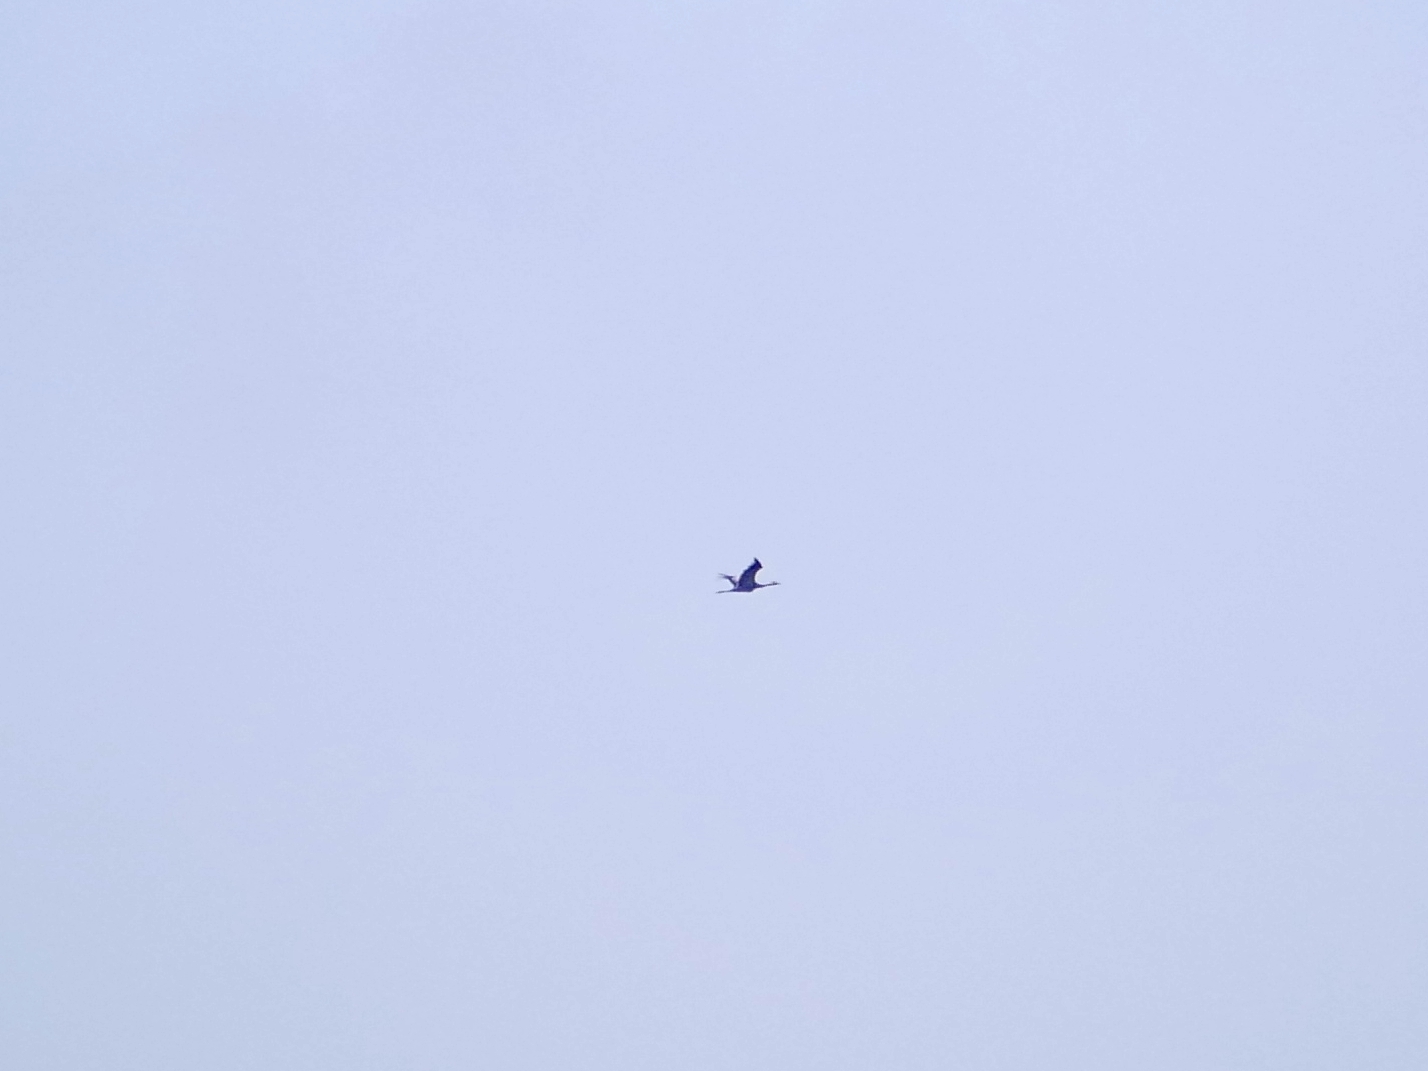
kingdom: Animalia
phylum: Chordata
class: Aves
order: Gruiformes
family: Gruidae
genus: Grus
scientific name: Grus grus
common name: Common crane
